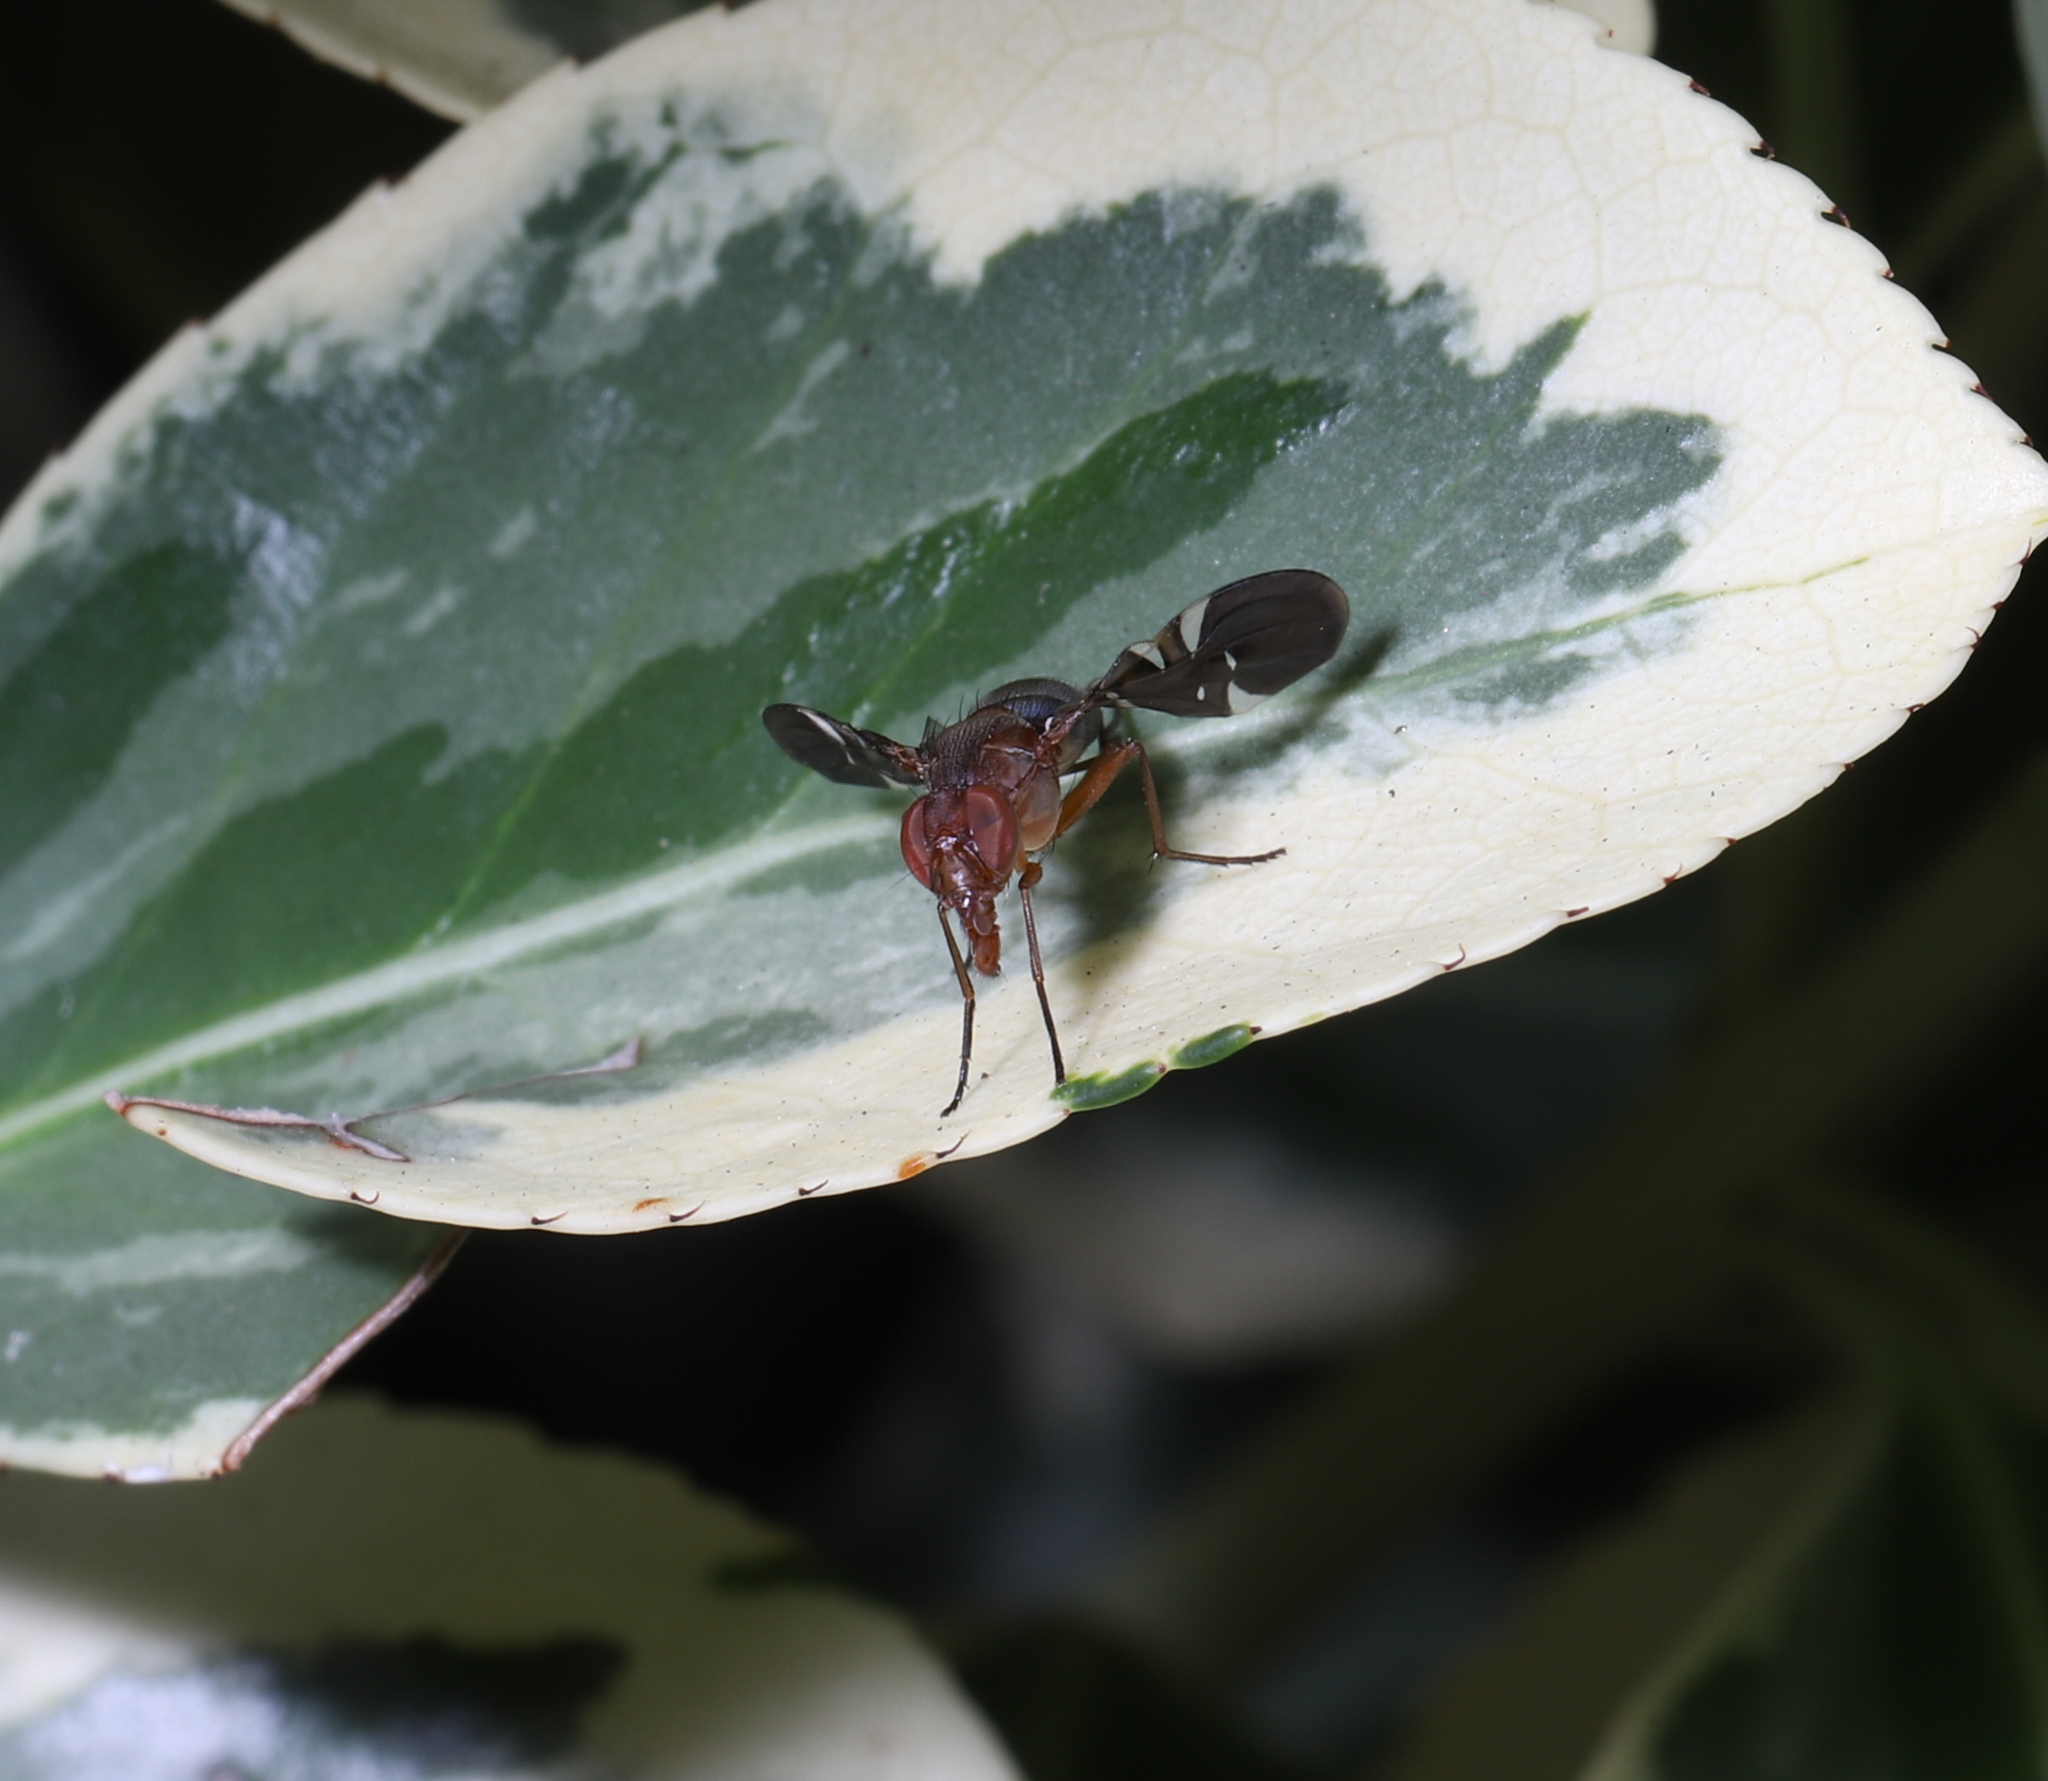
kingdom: Animalia
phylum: Arthropoda
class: Insecta
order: Diptera
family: Ulidiidae
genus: Delphinia
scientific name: Delphinia picta
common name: Common picture-winged fly
